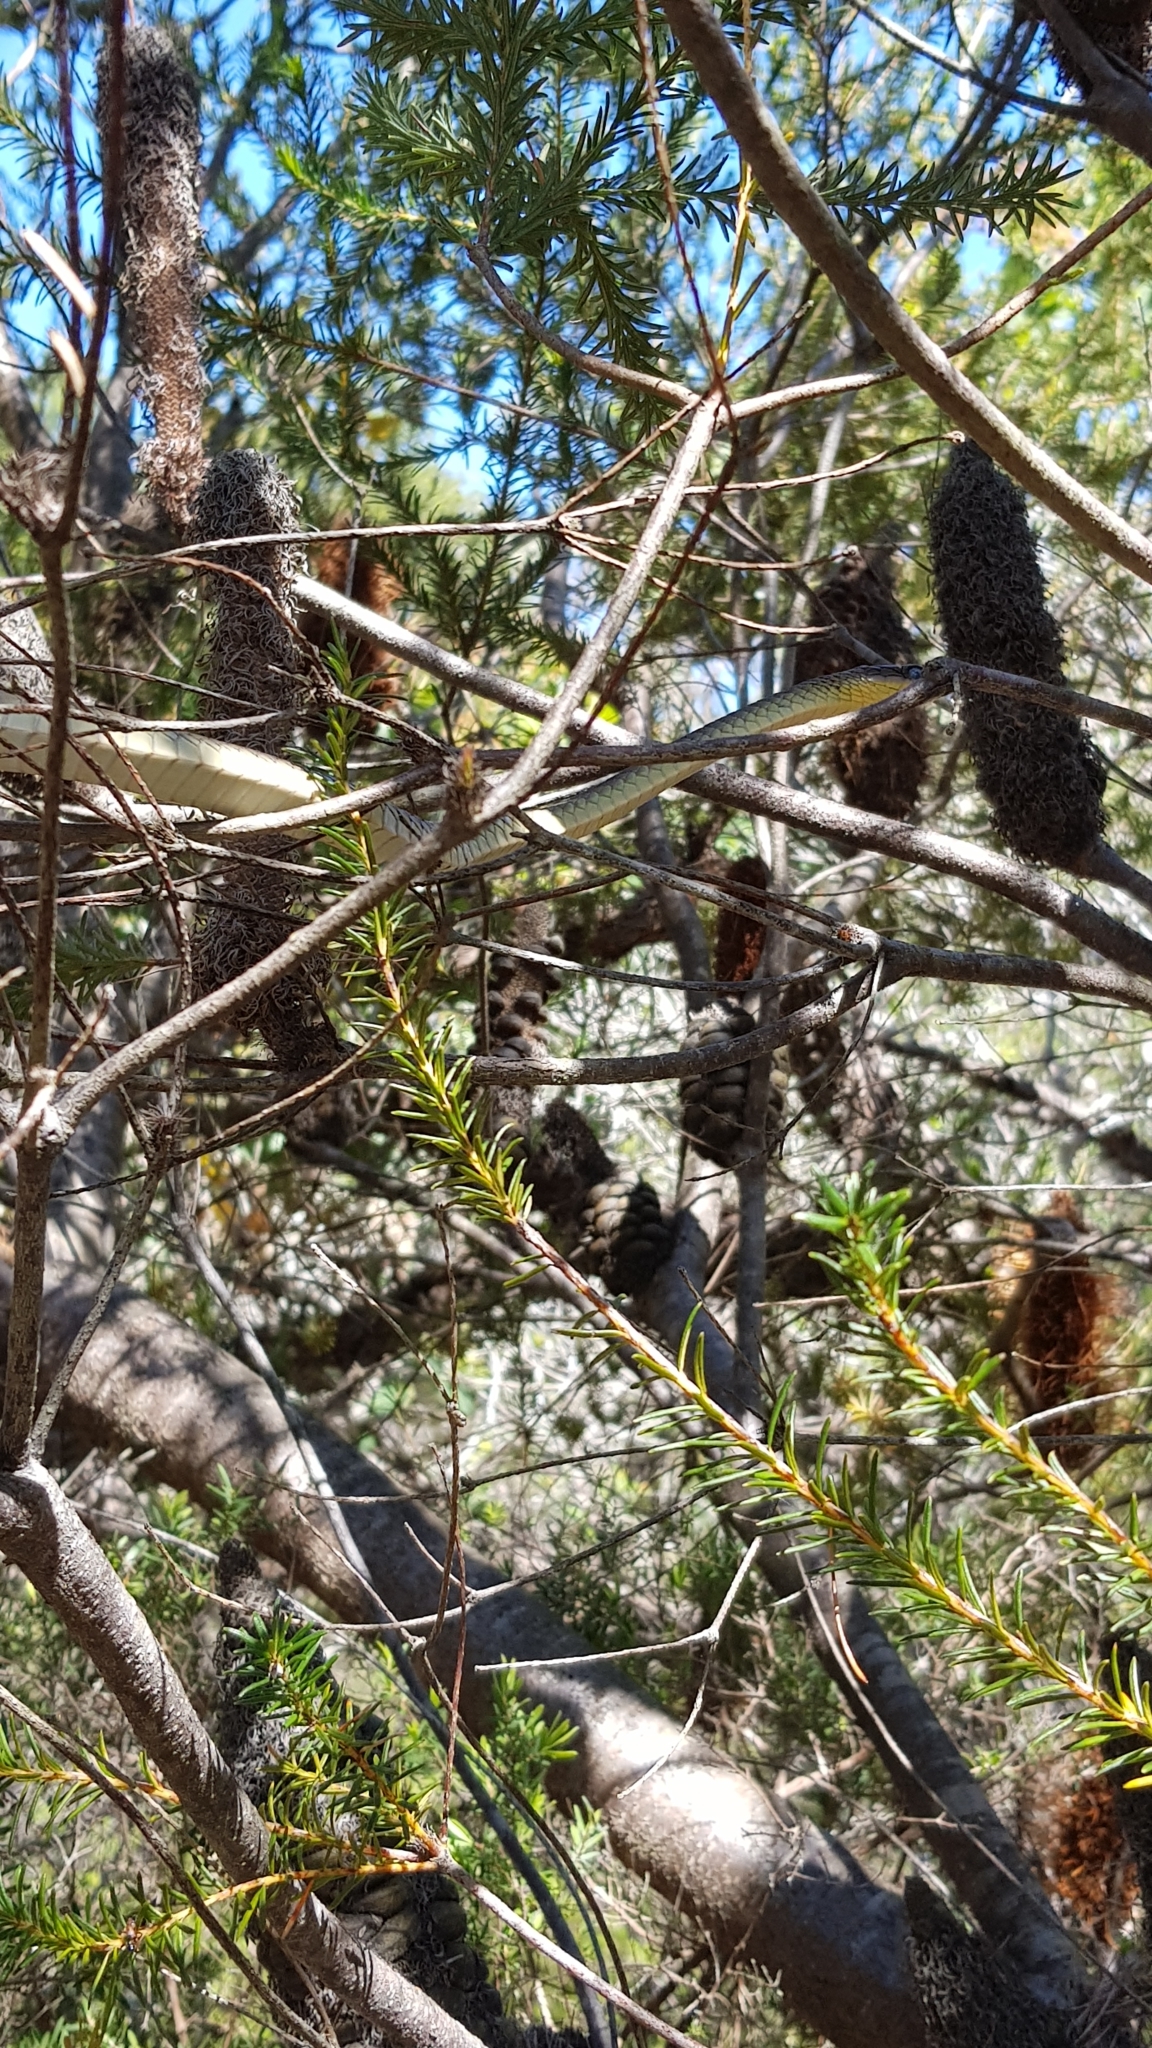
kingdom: Animalia
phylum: Chordata
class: Squamata
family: Colubridae
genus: Dendrelaphis
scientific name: Dendrelaphis punctulatus
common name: Common tree snake
